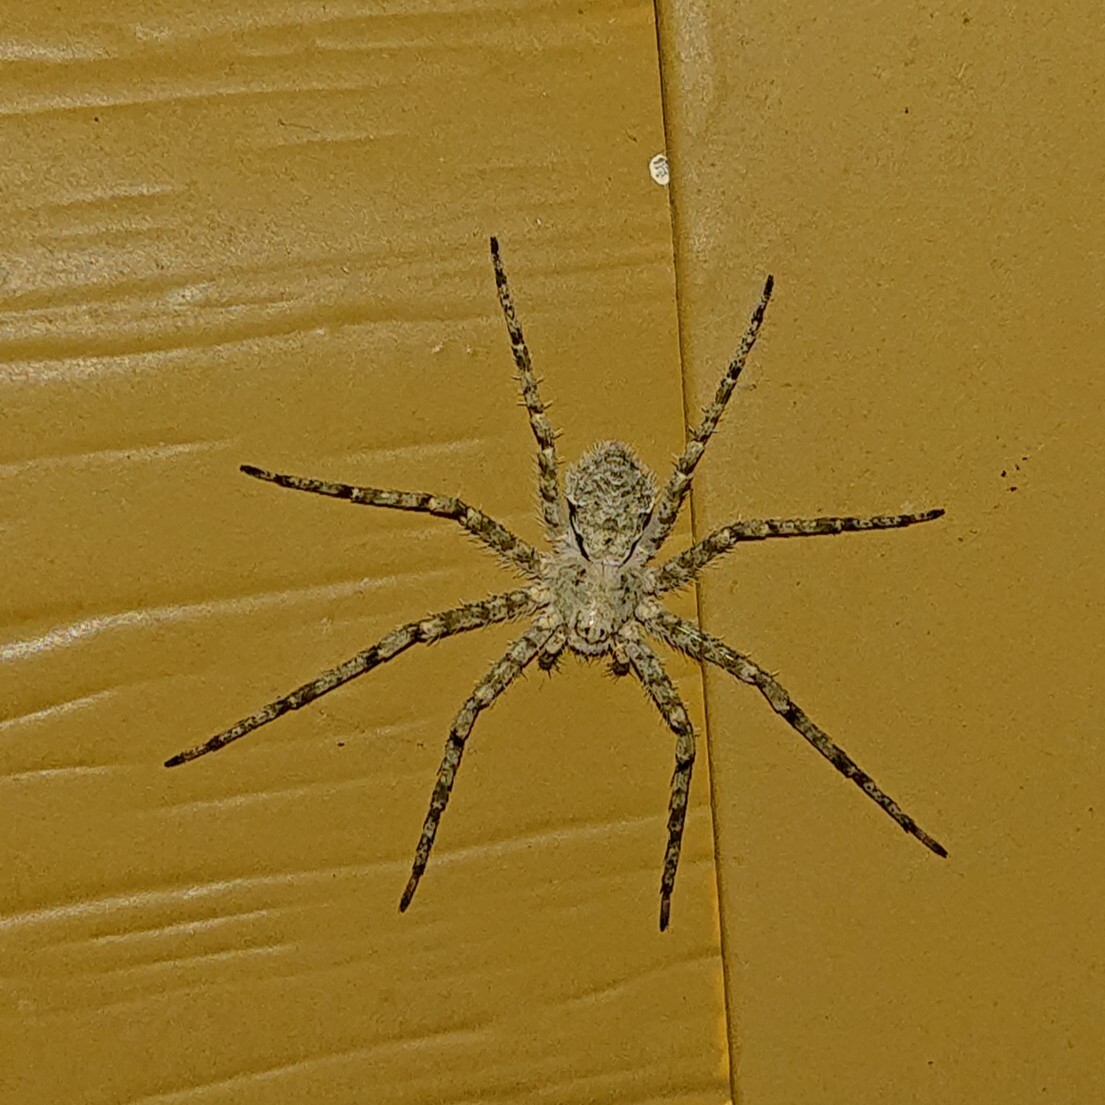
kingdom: Animalia
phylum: Arthropoda
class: Arachnida
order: Araneae
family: Philodromidae
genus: Philodromus
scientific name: Philodromus margaritatus
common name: Lichen running-spider
